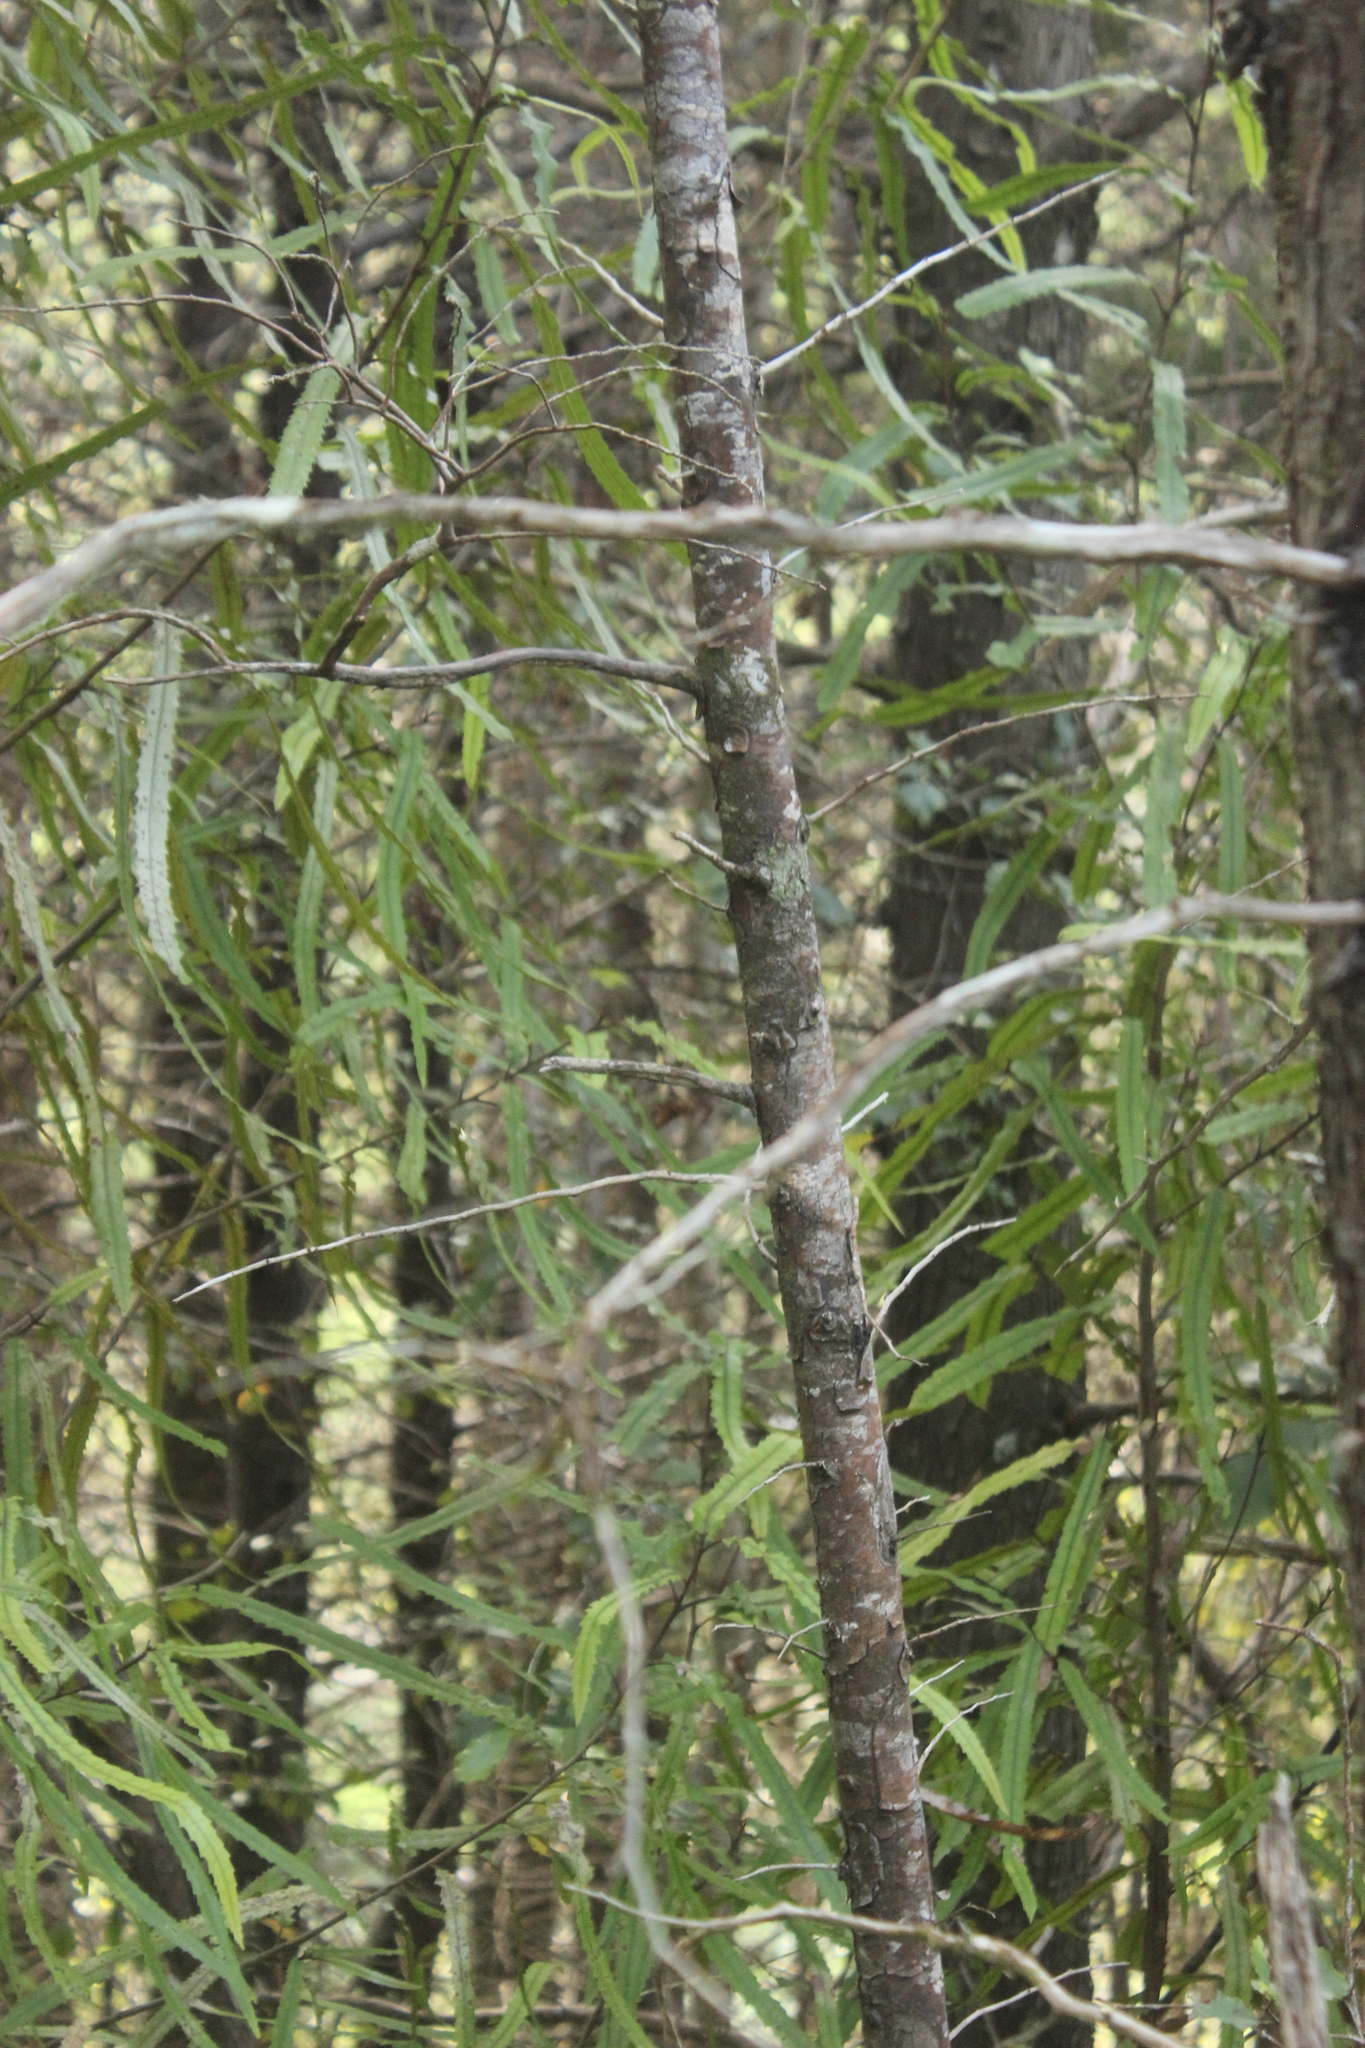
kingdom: Plantae
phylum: Tracheophyta
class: Pinopsida
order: Pinales
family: Cupressaceae
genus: Cupressus
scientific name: Cupressus lusitanica
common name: Mexican cypress
